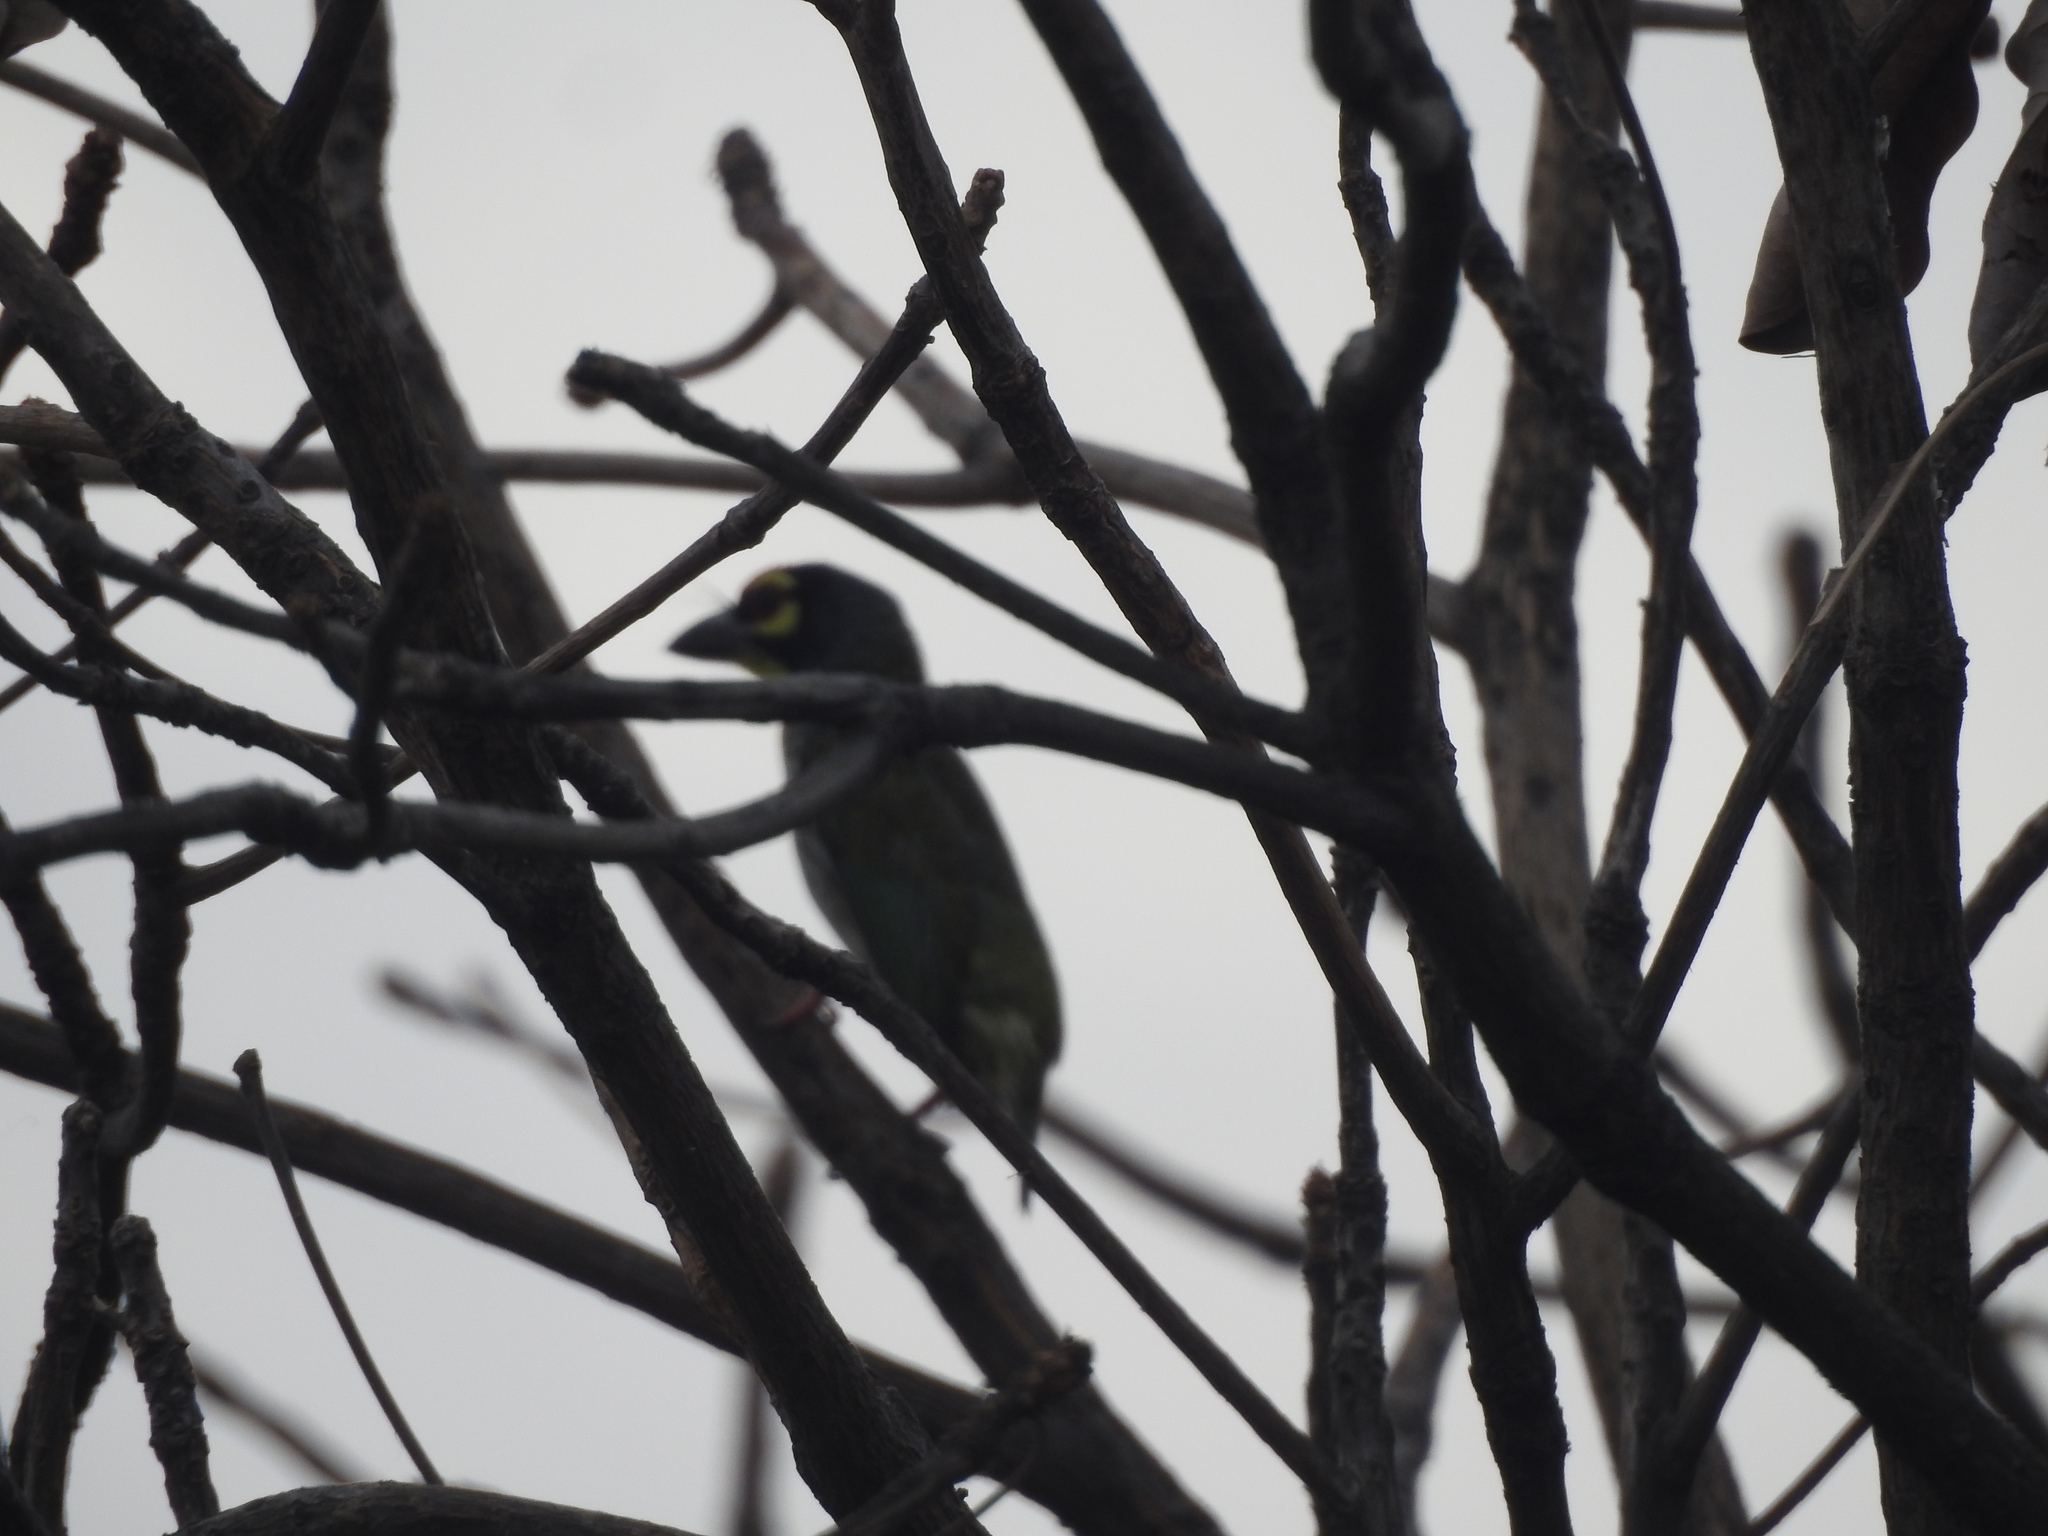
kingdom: Animalia
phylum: Chordata
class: Aves
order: Piciformes
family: Megalaimidae
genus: Psilopogon
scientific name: Psilopogon haemacephalus
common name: Coppersmith barbet
